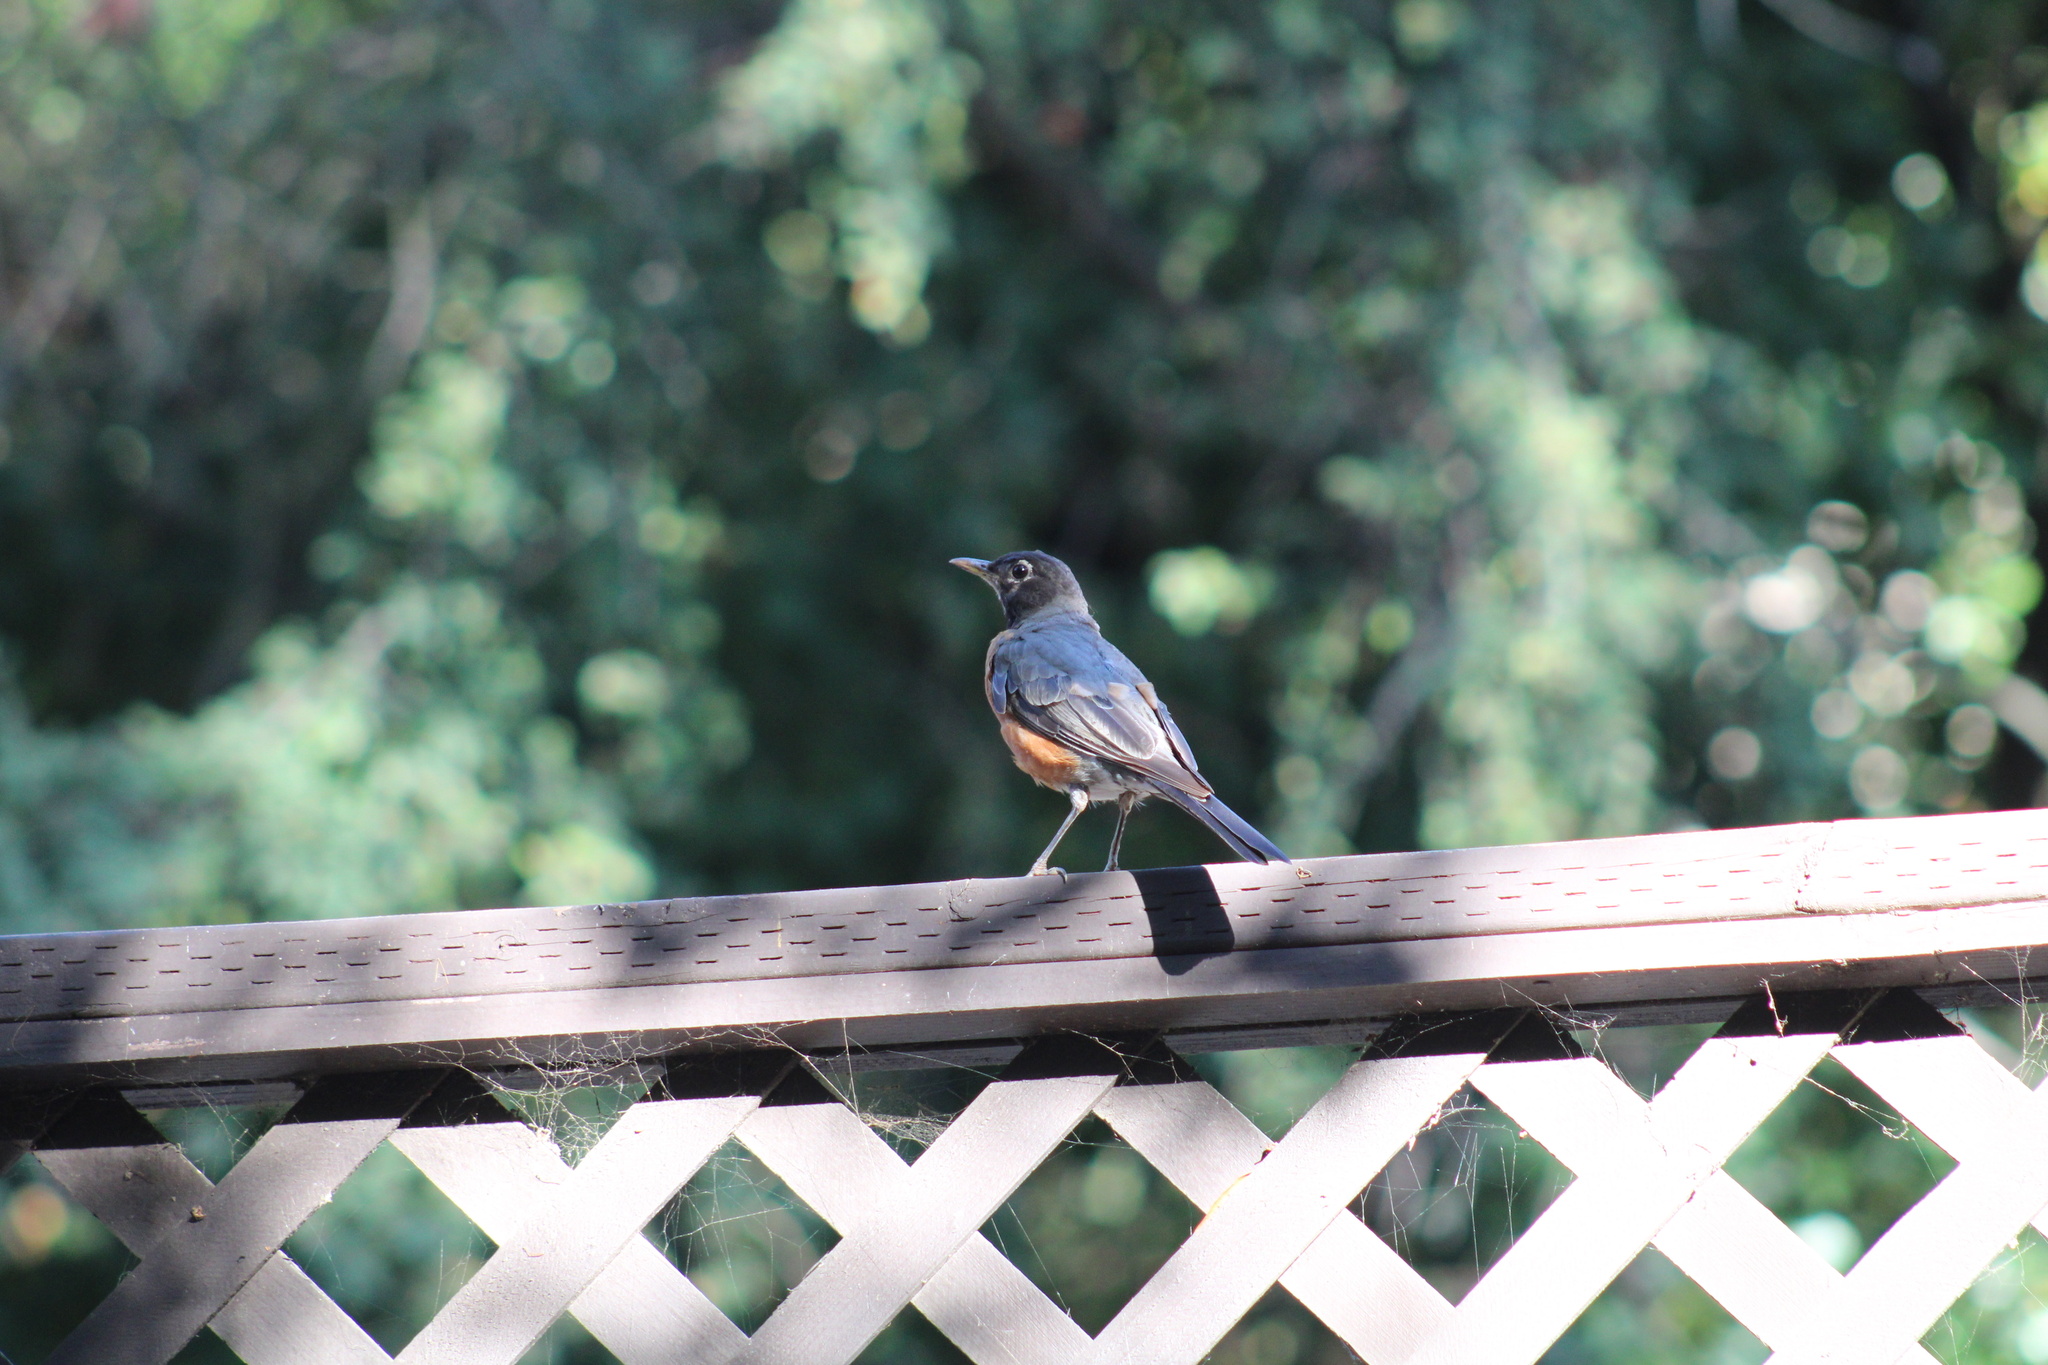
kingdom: Animalia
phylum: Chordata
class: Aves
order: Passeriformes
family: Turdidae
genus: Turdus
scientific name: Turdus migratorius
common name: American robin
